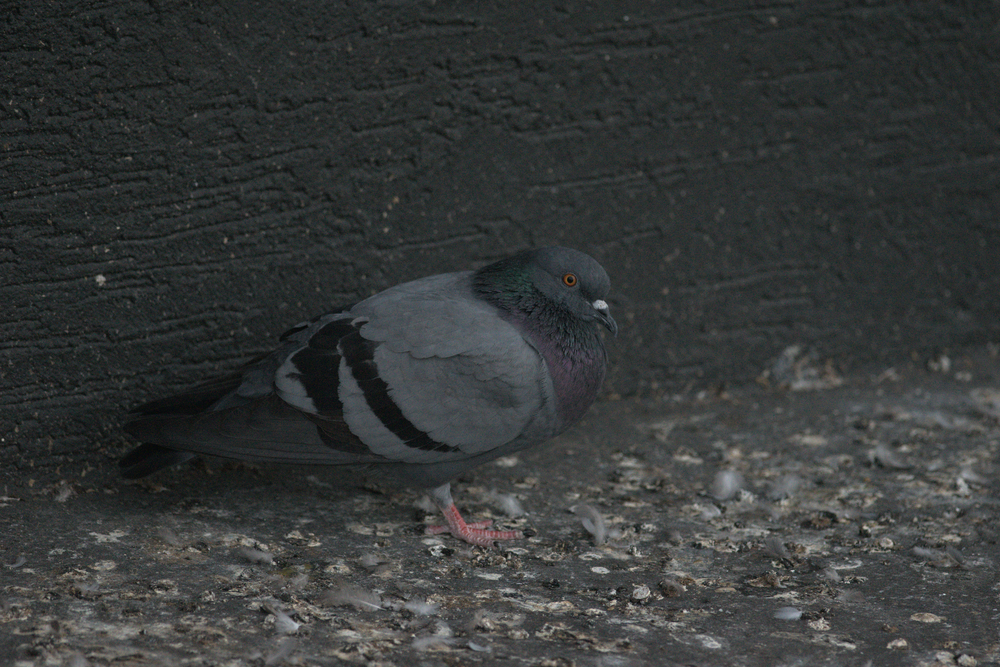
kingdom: Animalia
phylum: Chordata
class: Aves
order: Columbiformes
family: Columbidae
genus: Columba
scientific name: Columba livia
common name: Rock pigeon
